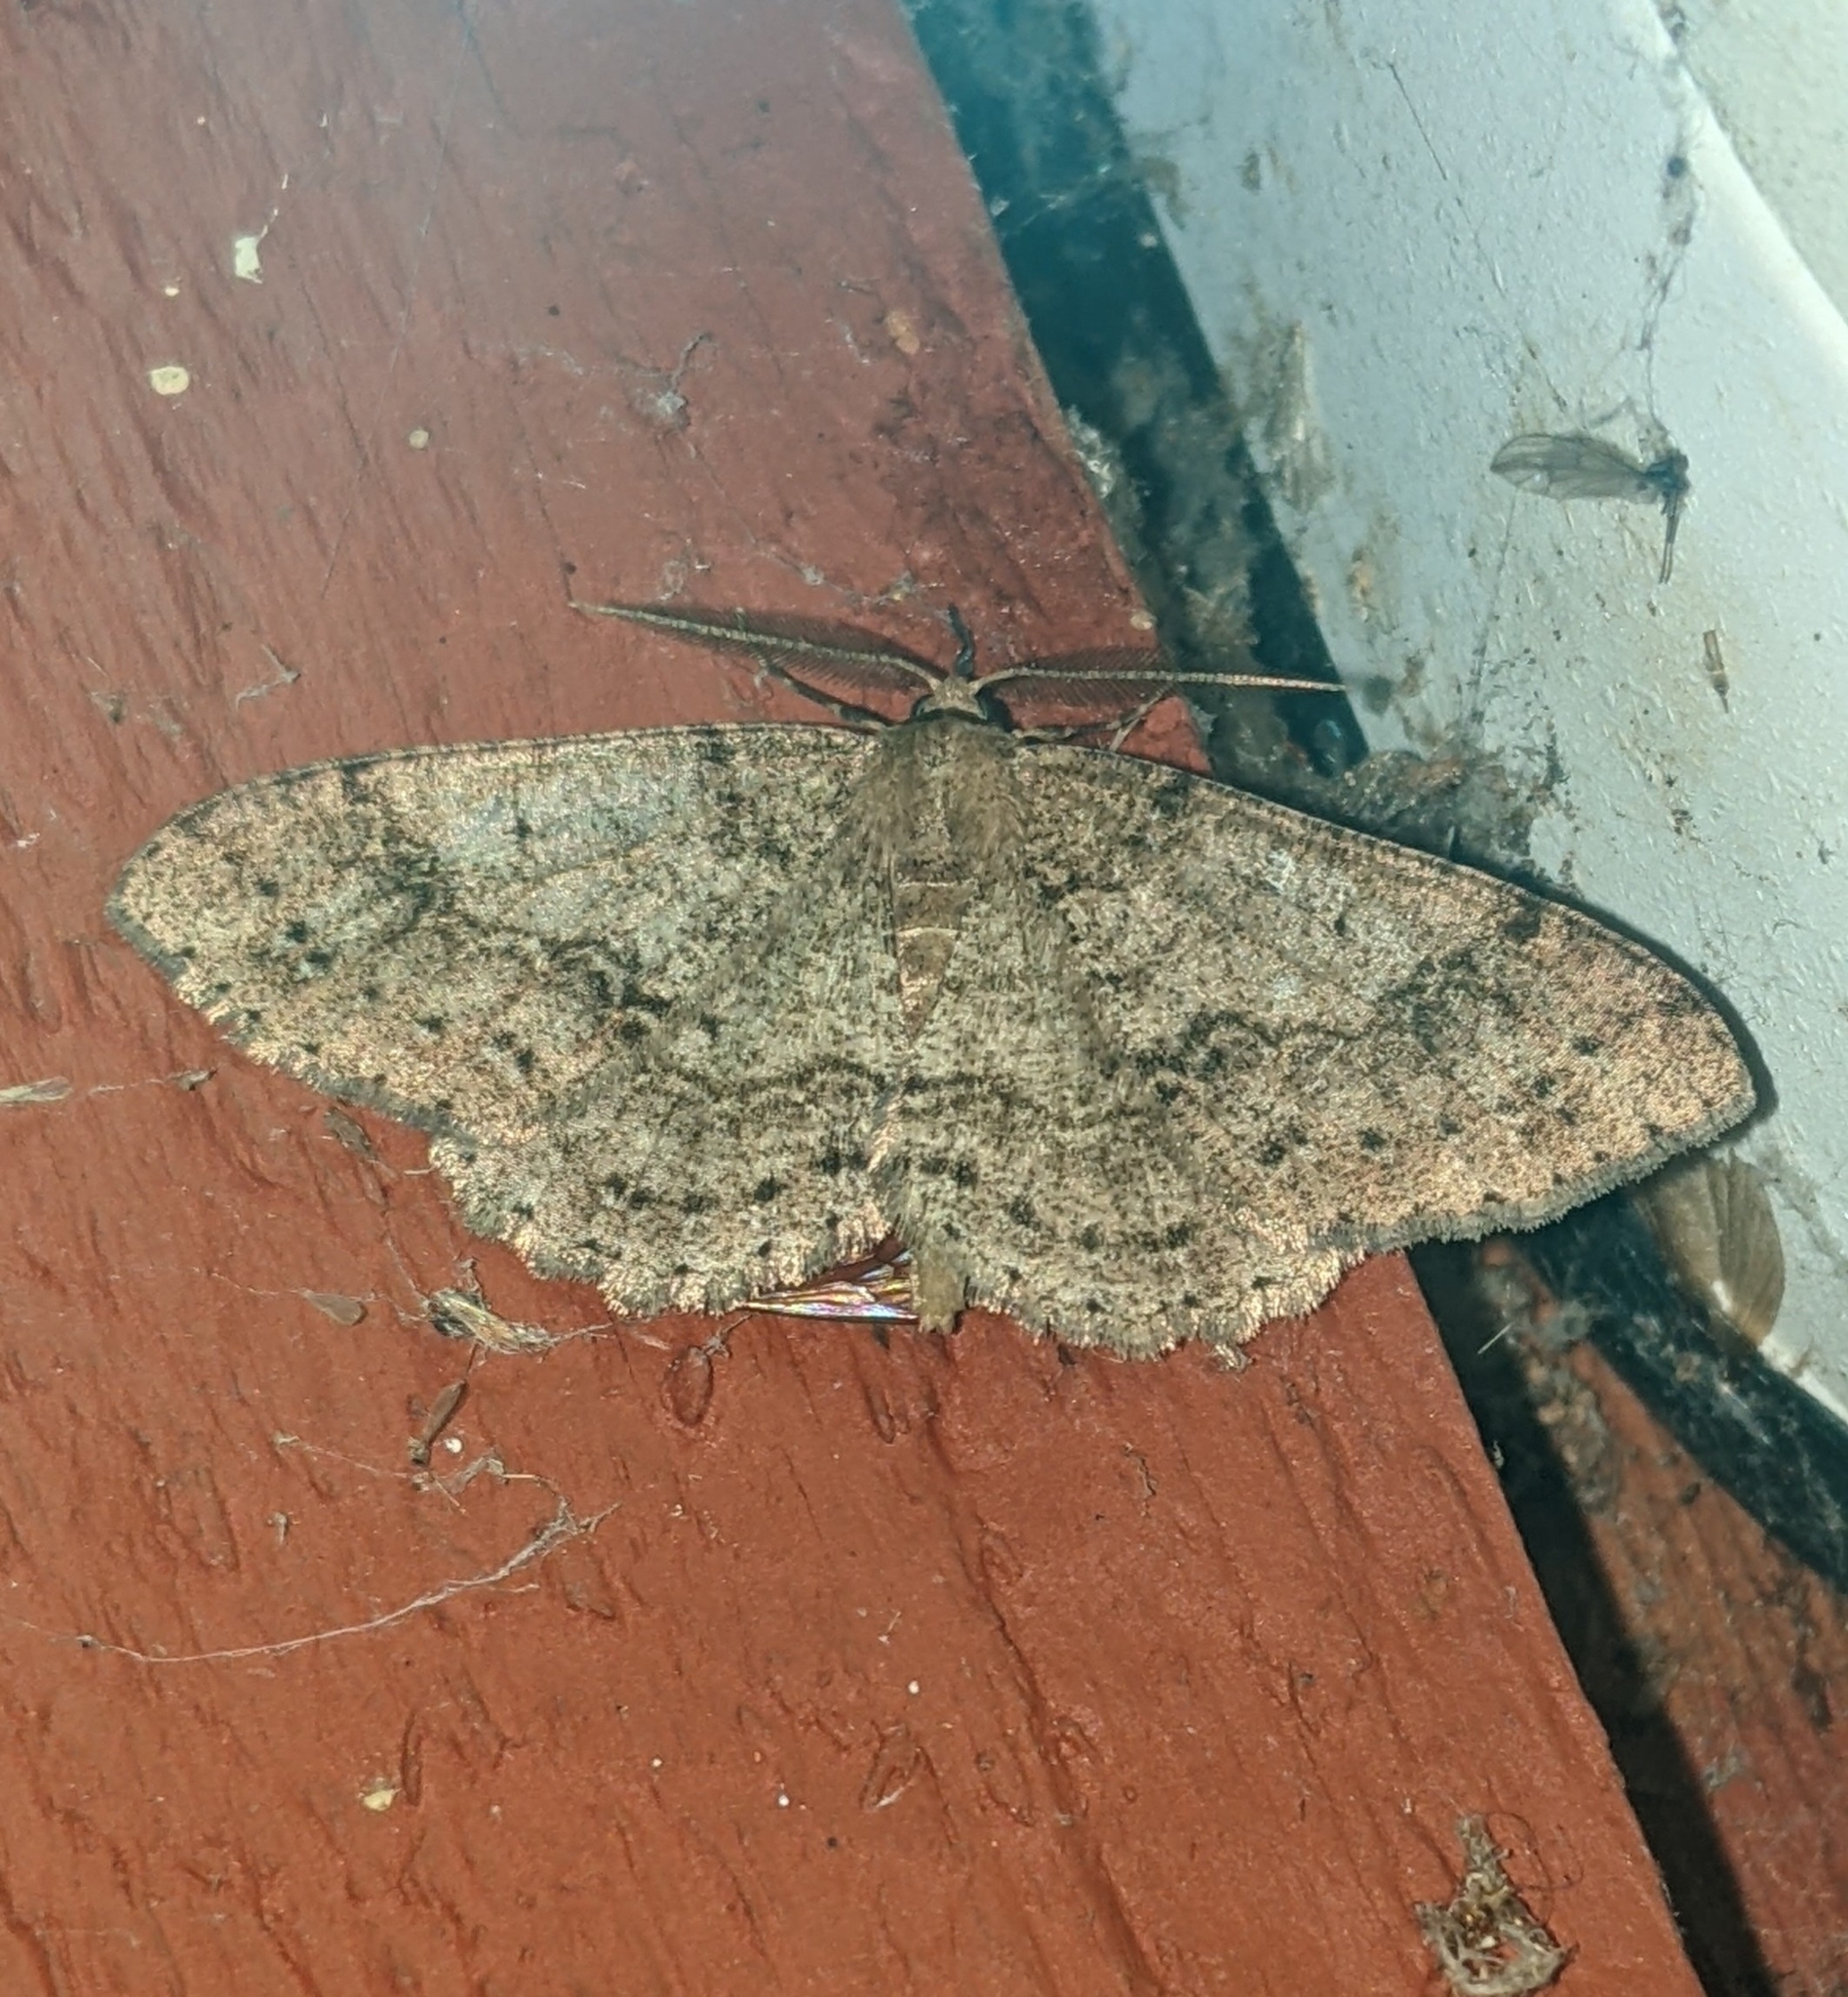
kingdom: Animalia
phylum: Arthropoda
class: Insecta
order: Lepidoptera
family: Geometridae
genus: Melanolophia
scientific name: Melanolophia imitata
